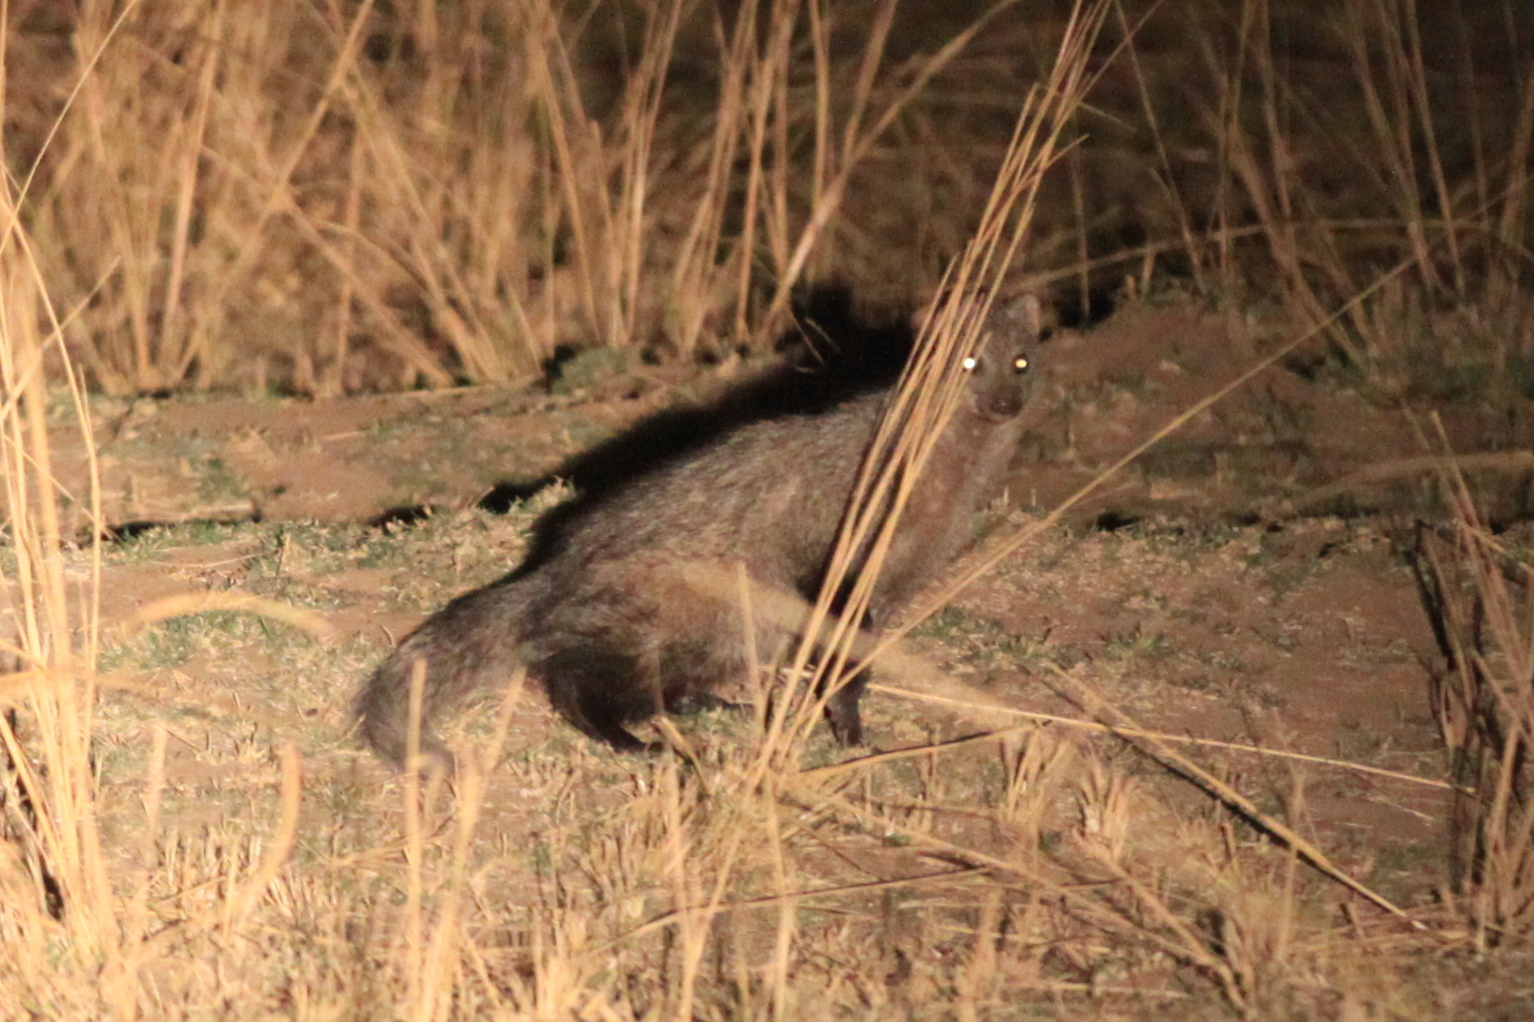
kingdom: Animalia
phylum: Chordata
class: Mammalia
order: Carnivora
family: Herpestidae
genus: Ichneumia
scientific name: Ichneumia albicauda
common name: White-tailed mongoose
